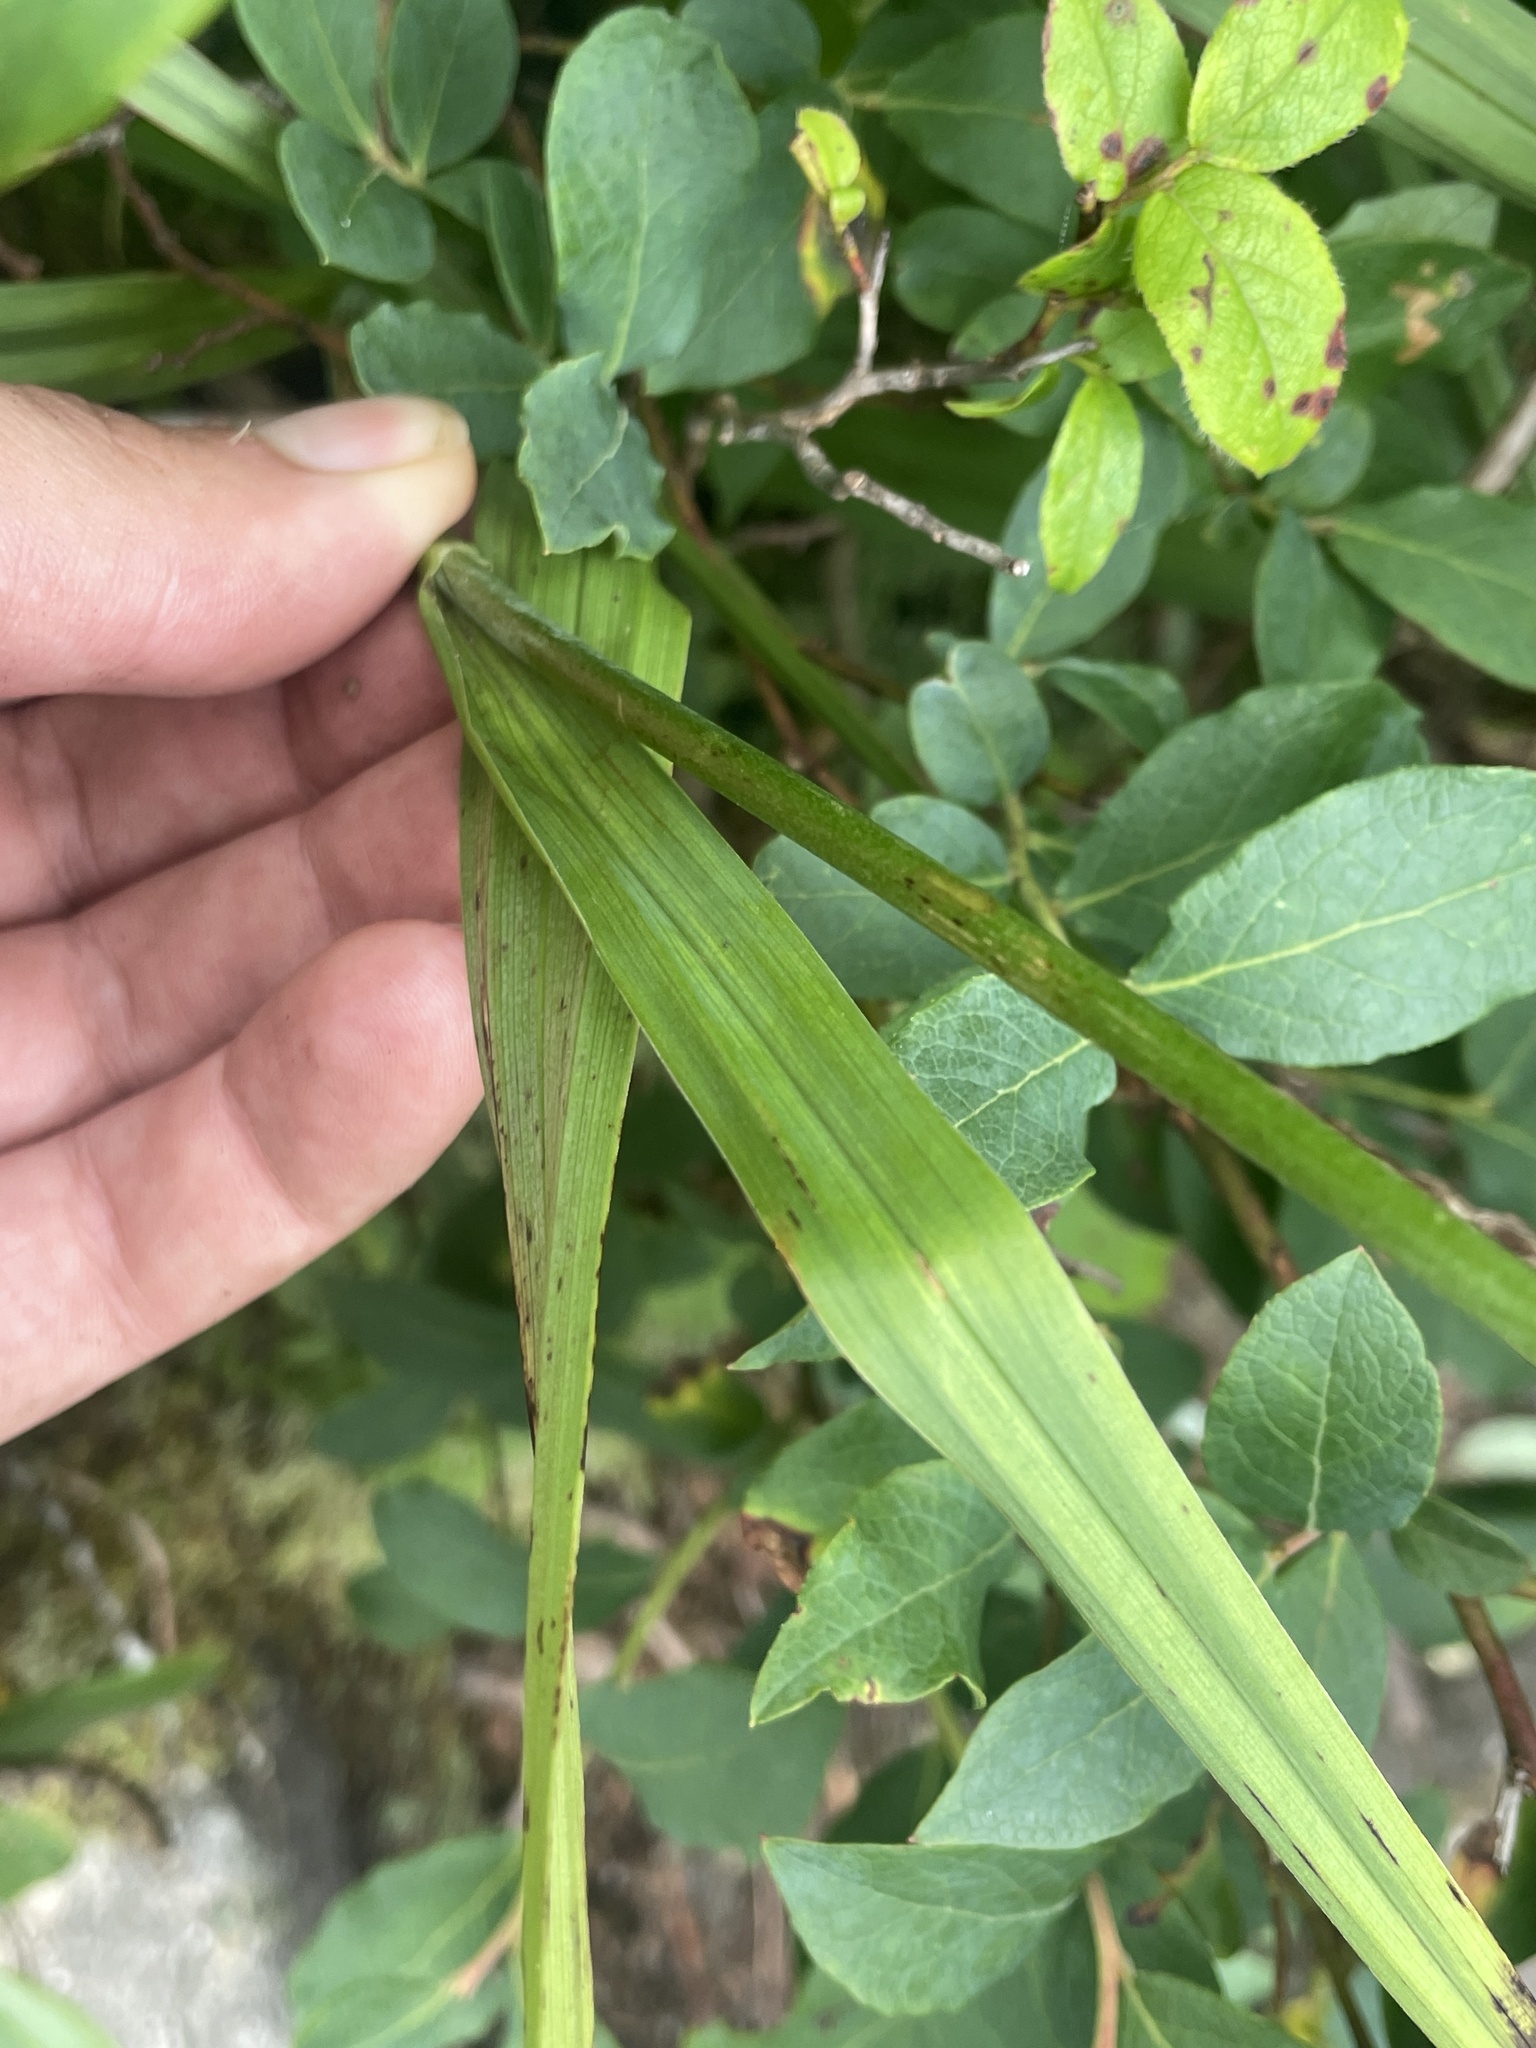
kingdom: Plantae
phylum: Tracheophyta
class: Liliopsida
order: Liliales
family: Melanthiaceae
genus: Stenanthium
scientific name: Stenanthium leimanthoides
